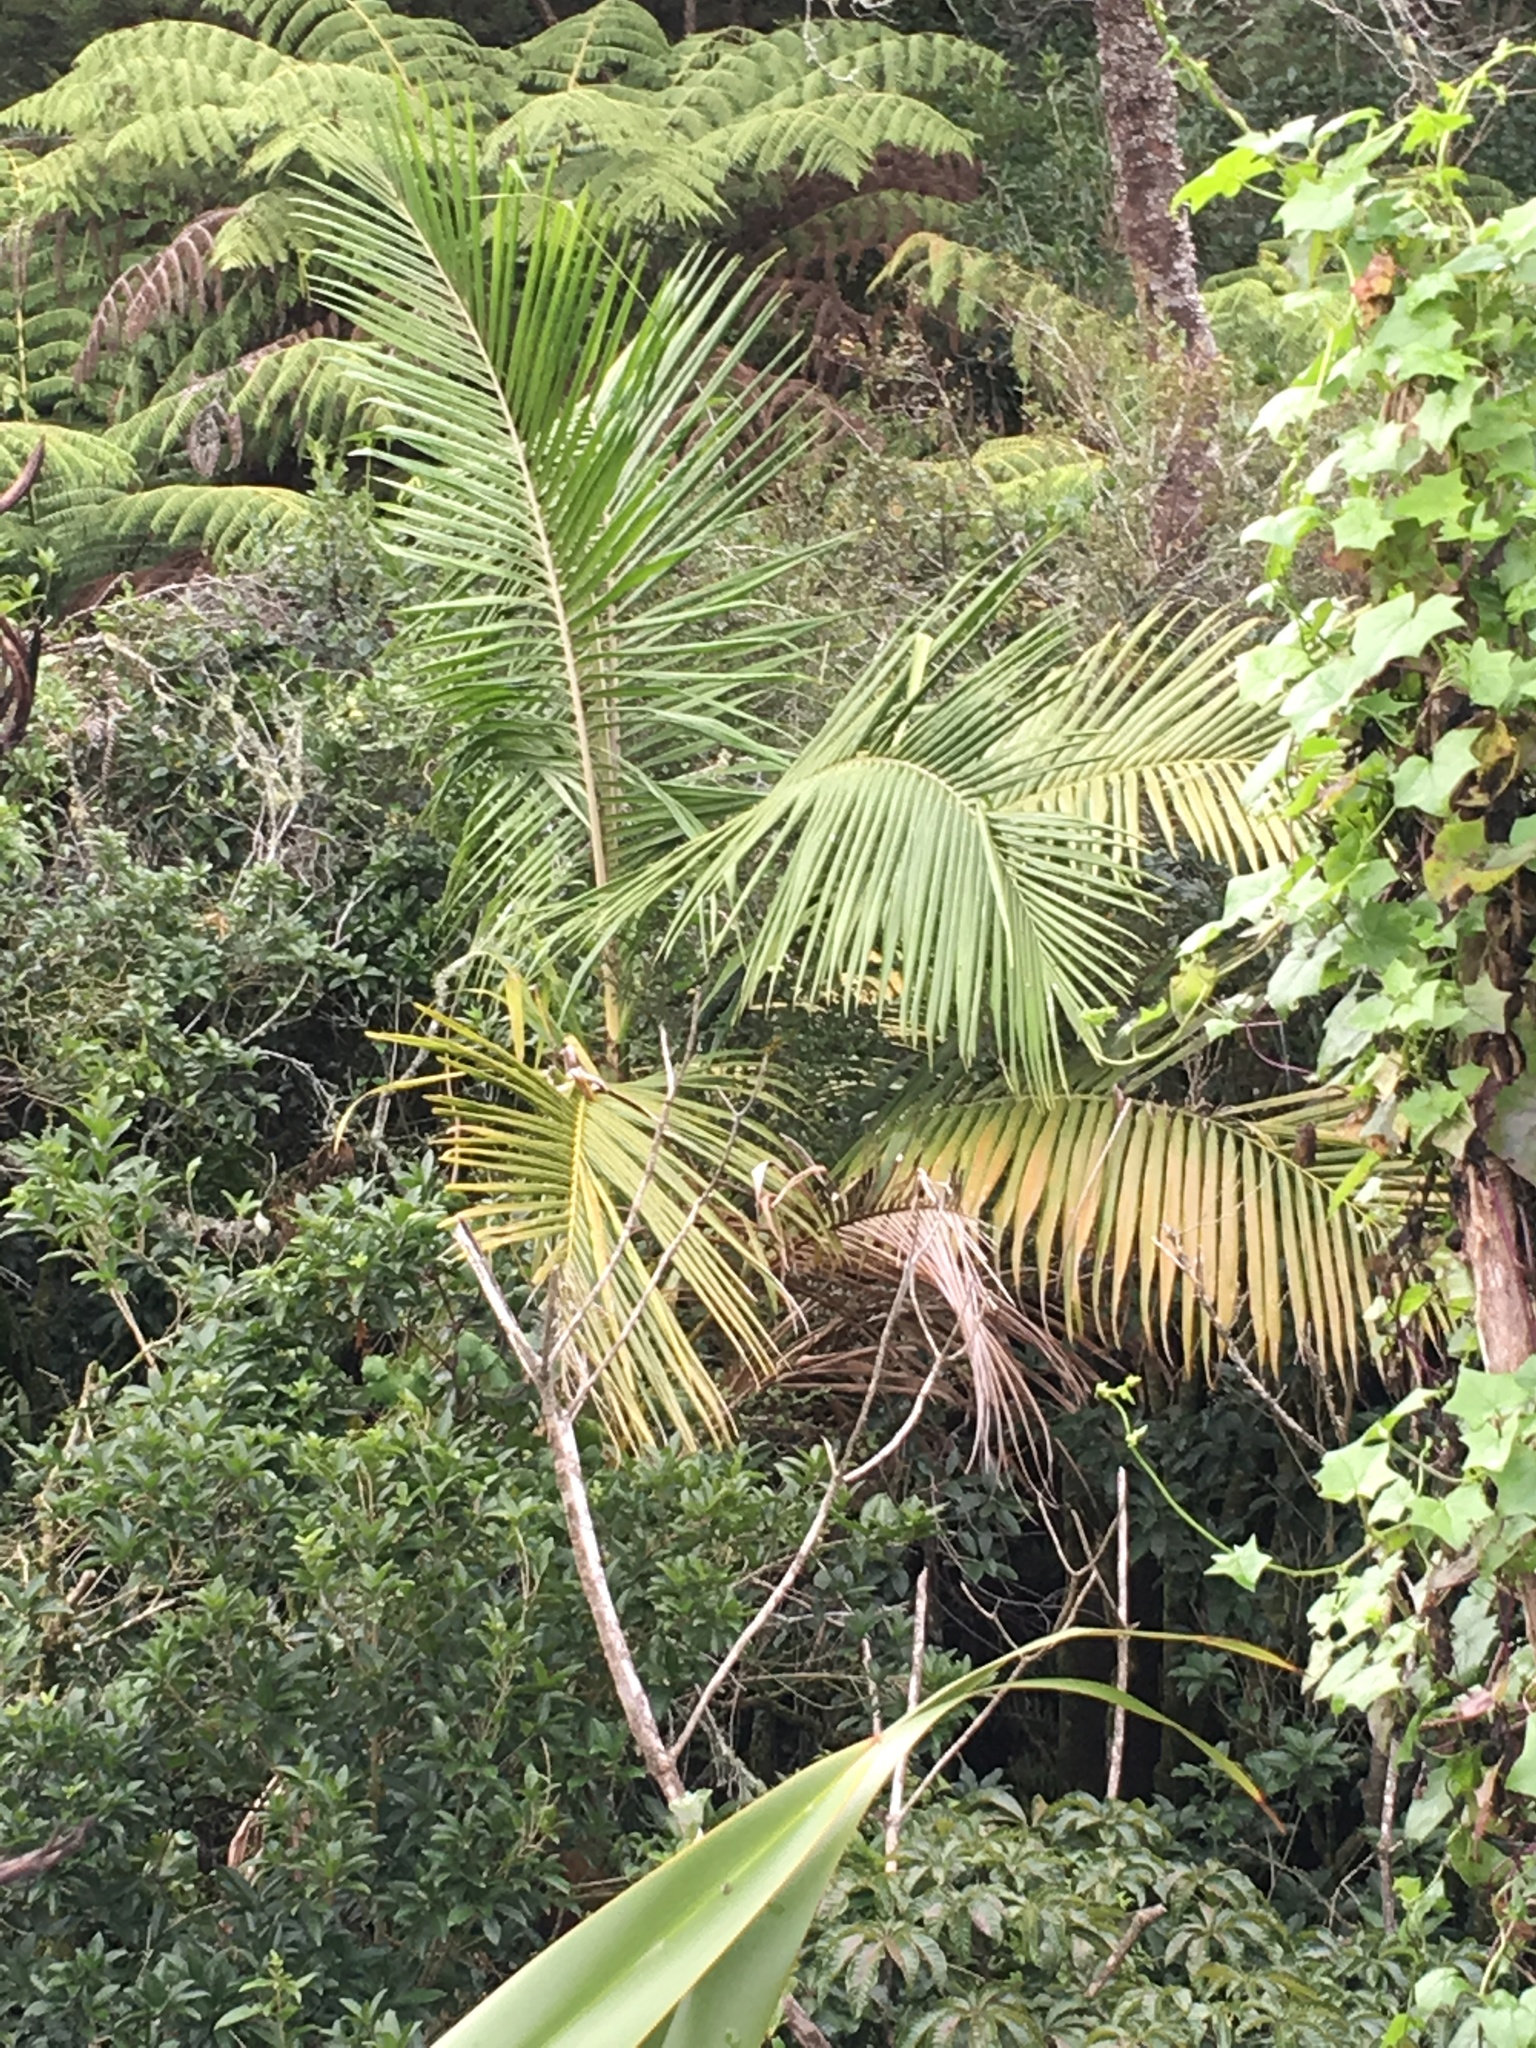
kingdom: Plantae
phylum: Tracheophyta
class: Liliopsida
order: Arecales
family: Arecaceae
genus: Archontophoenix
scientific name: Archontophoenix cunninghamiana
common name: Piccabeen bangalow palm
